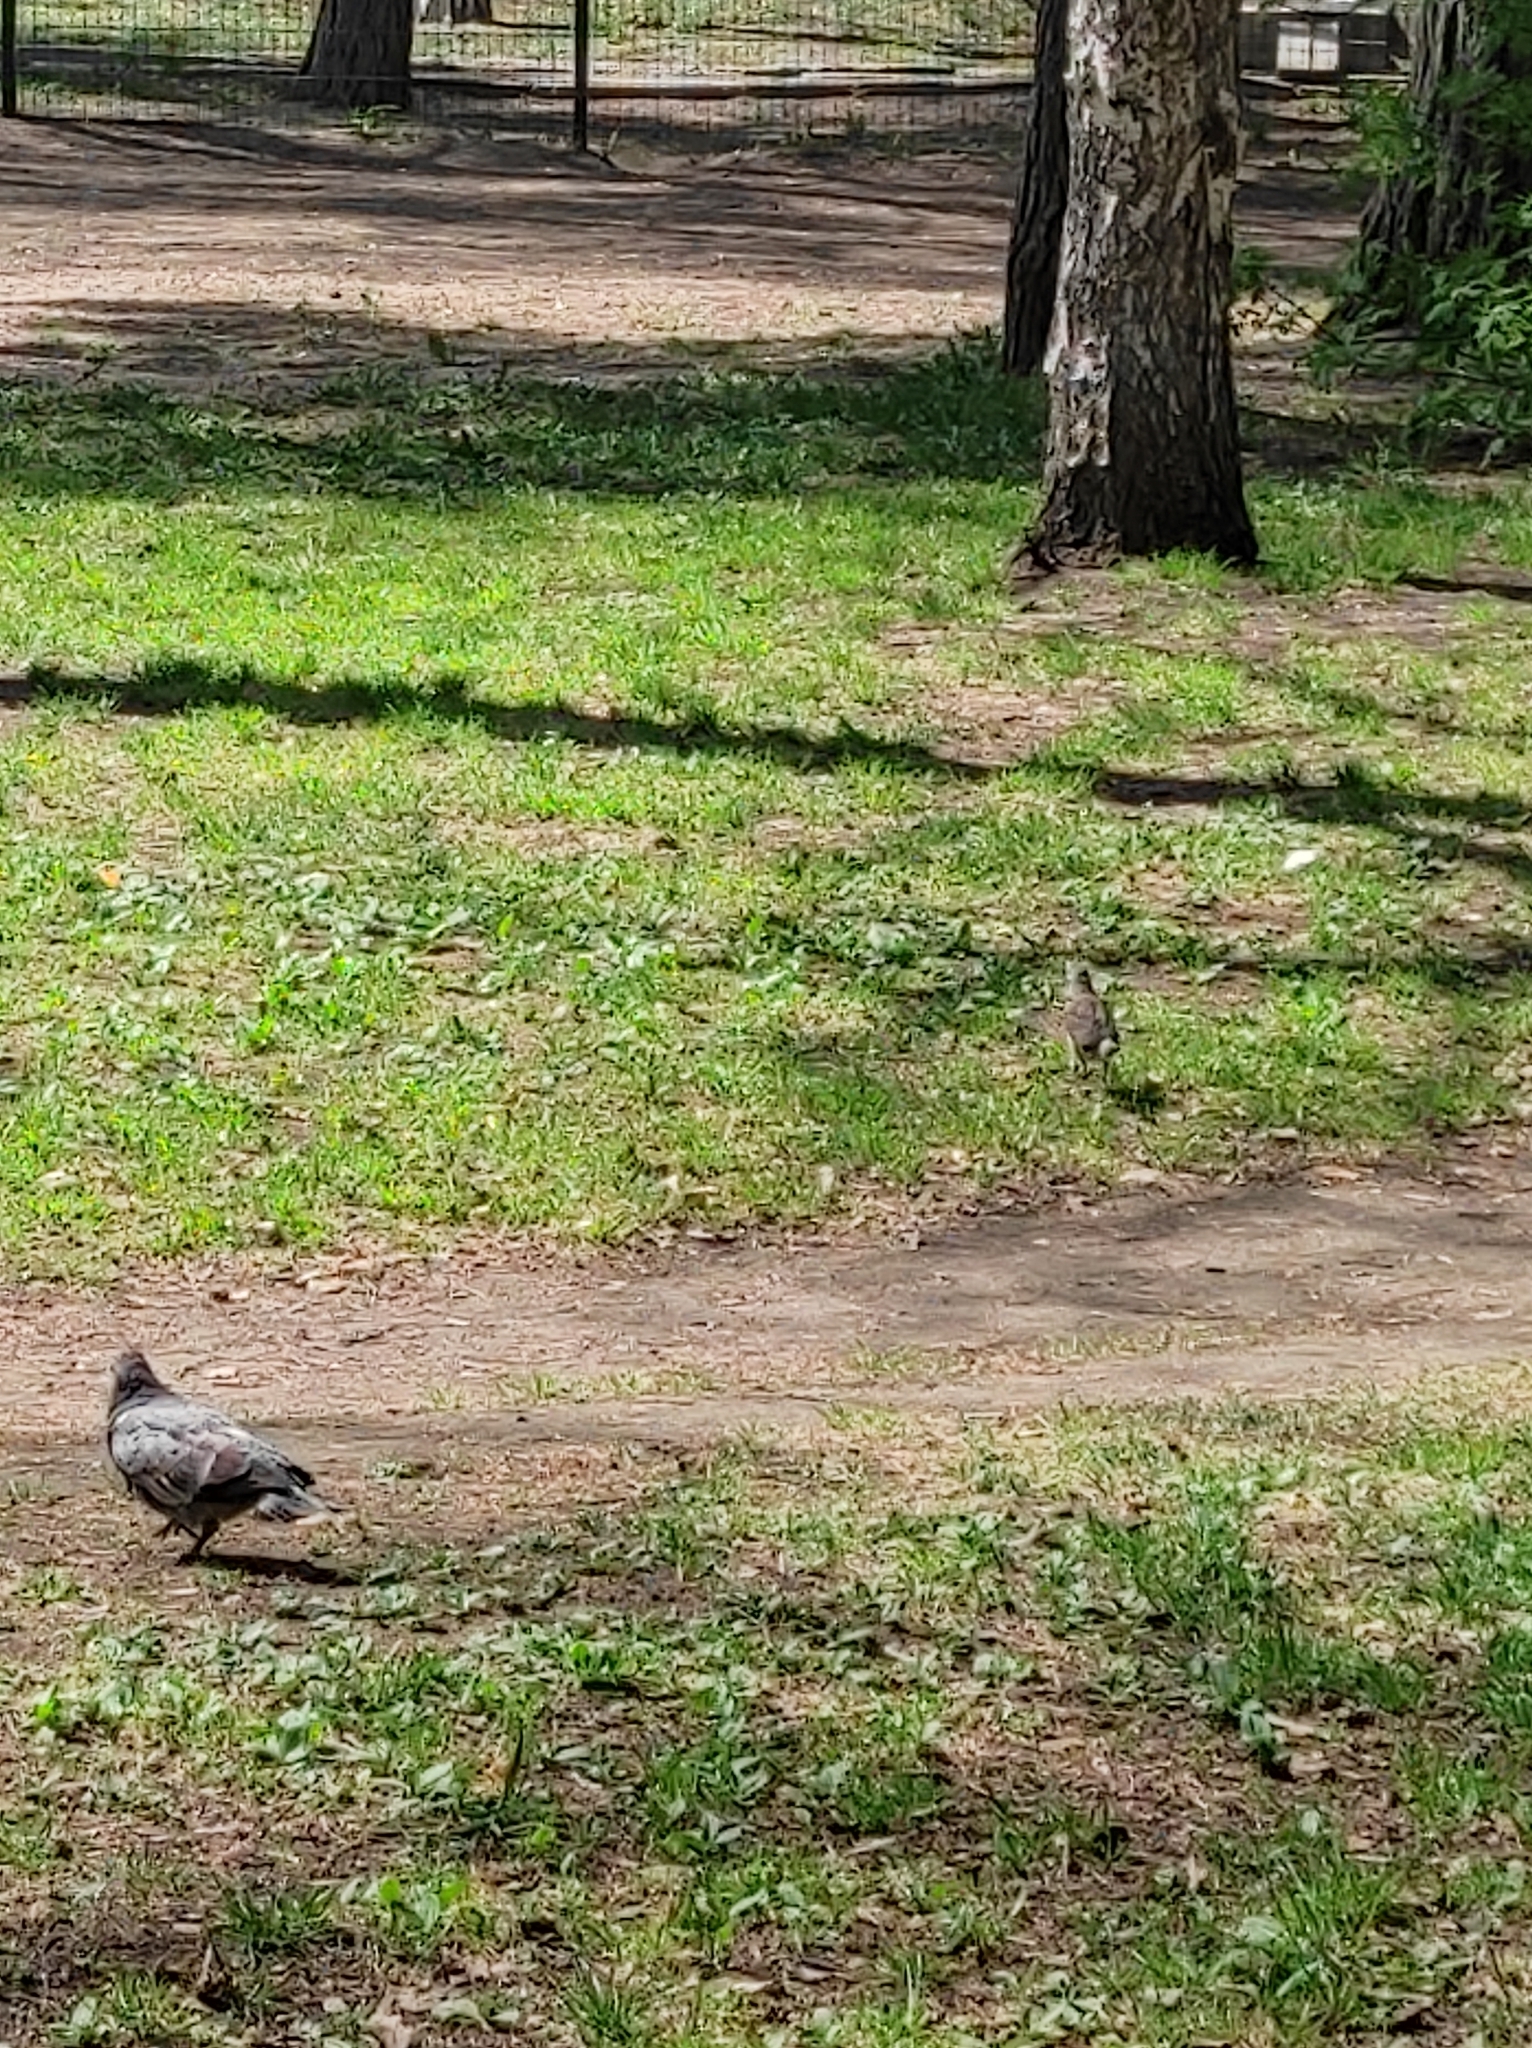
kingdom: Animalia
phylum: Chordata
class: Aves
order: Columbiformes
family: Columbidae
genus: Columba
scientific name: Columba livia
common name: Rock pigeon
